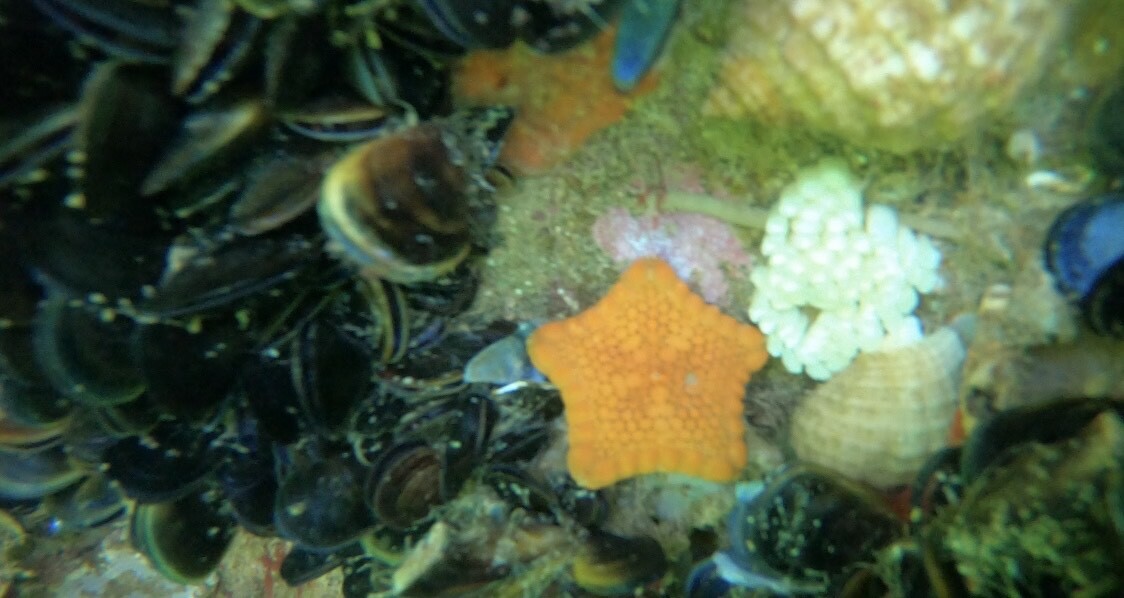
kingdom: Animalia
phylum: Echinodermata
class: Asteroidea
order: Valvatida
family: Goniasteridae
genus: Tosia
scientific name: Tosia australis
